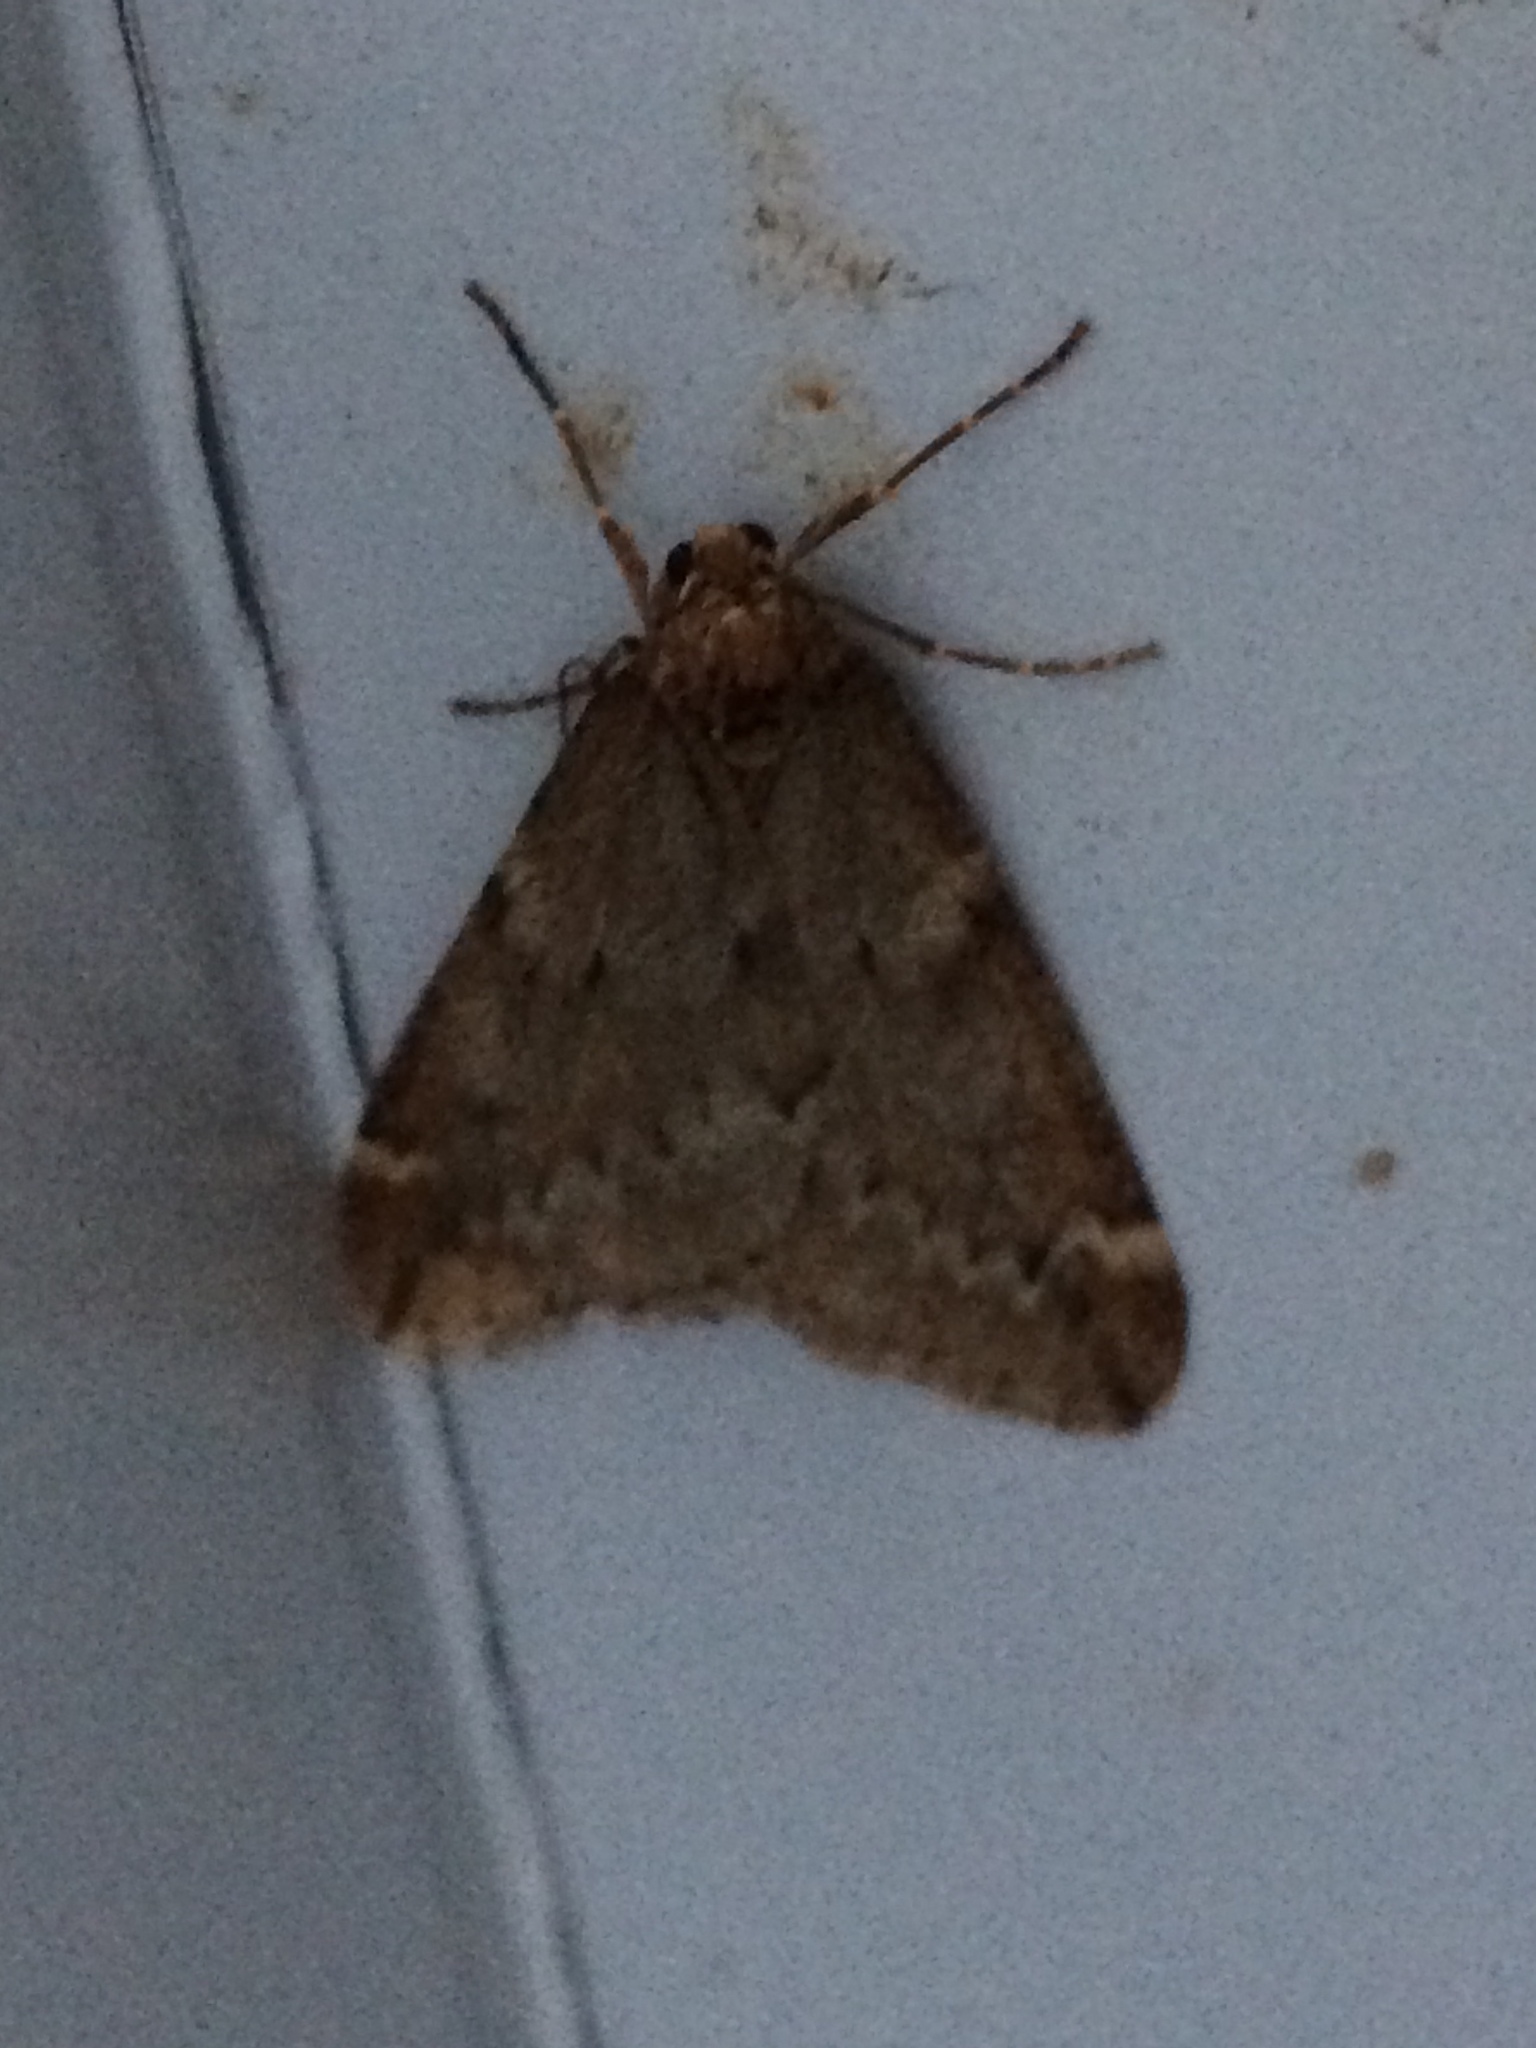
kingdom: Animalia
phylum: Arthropoda
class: Insecta
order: Lepidoptera
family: Geometridae
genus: Alsophila
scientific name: Alsophila aescularia
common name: March moth
